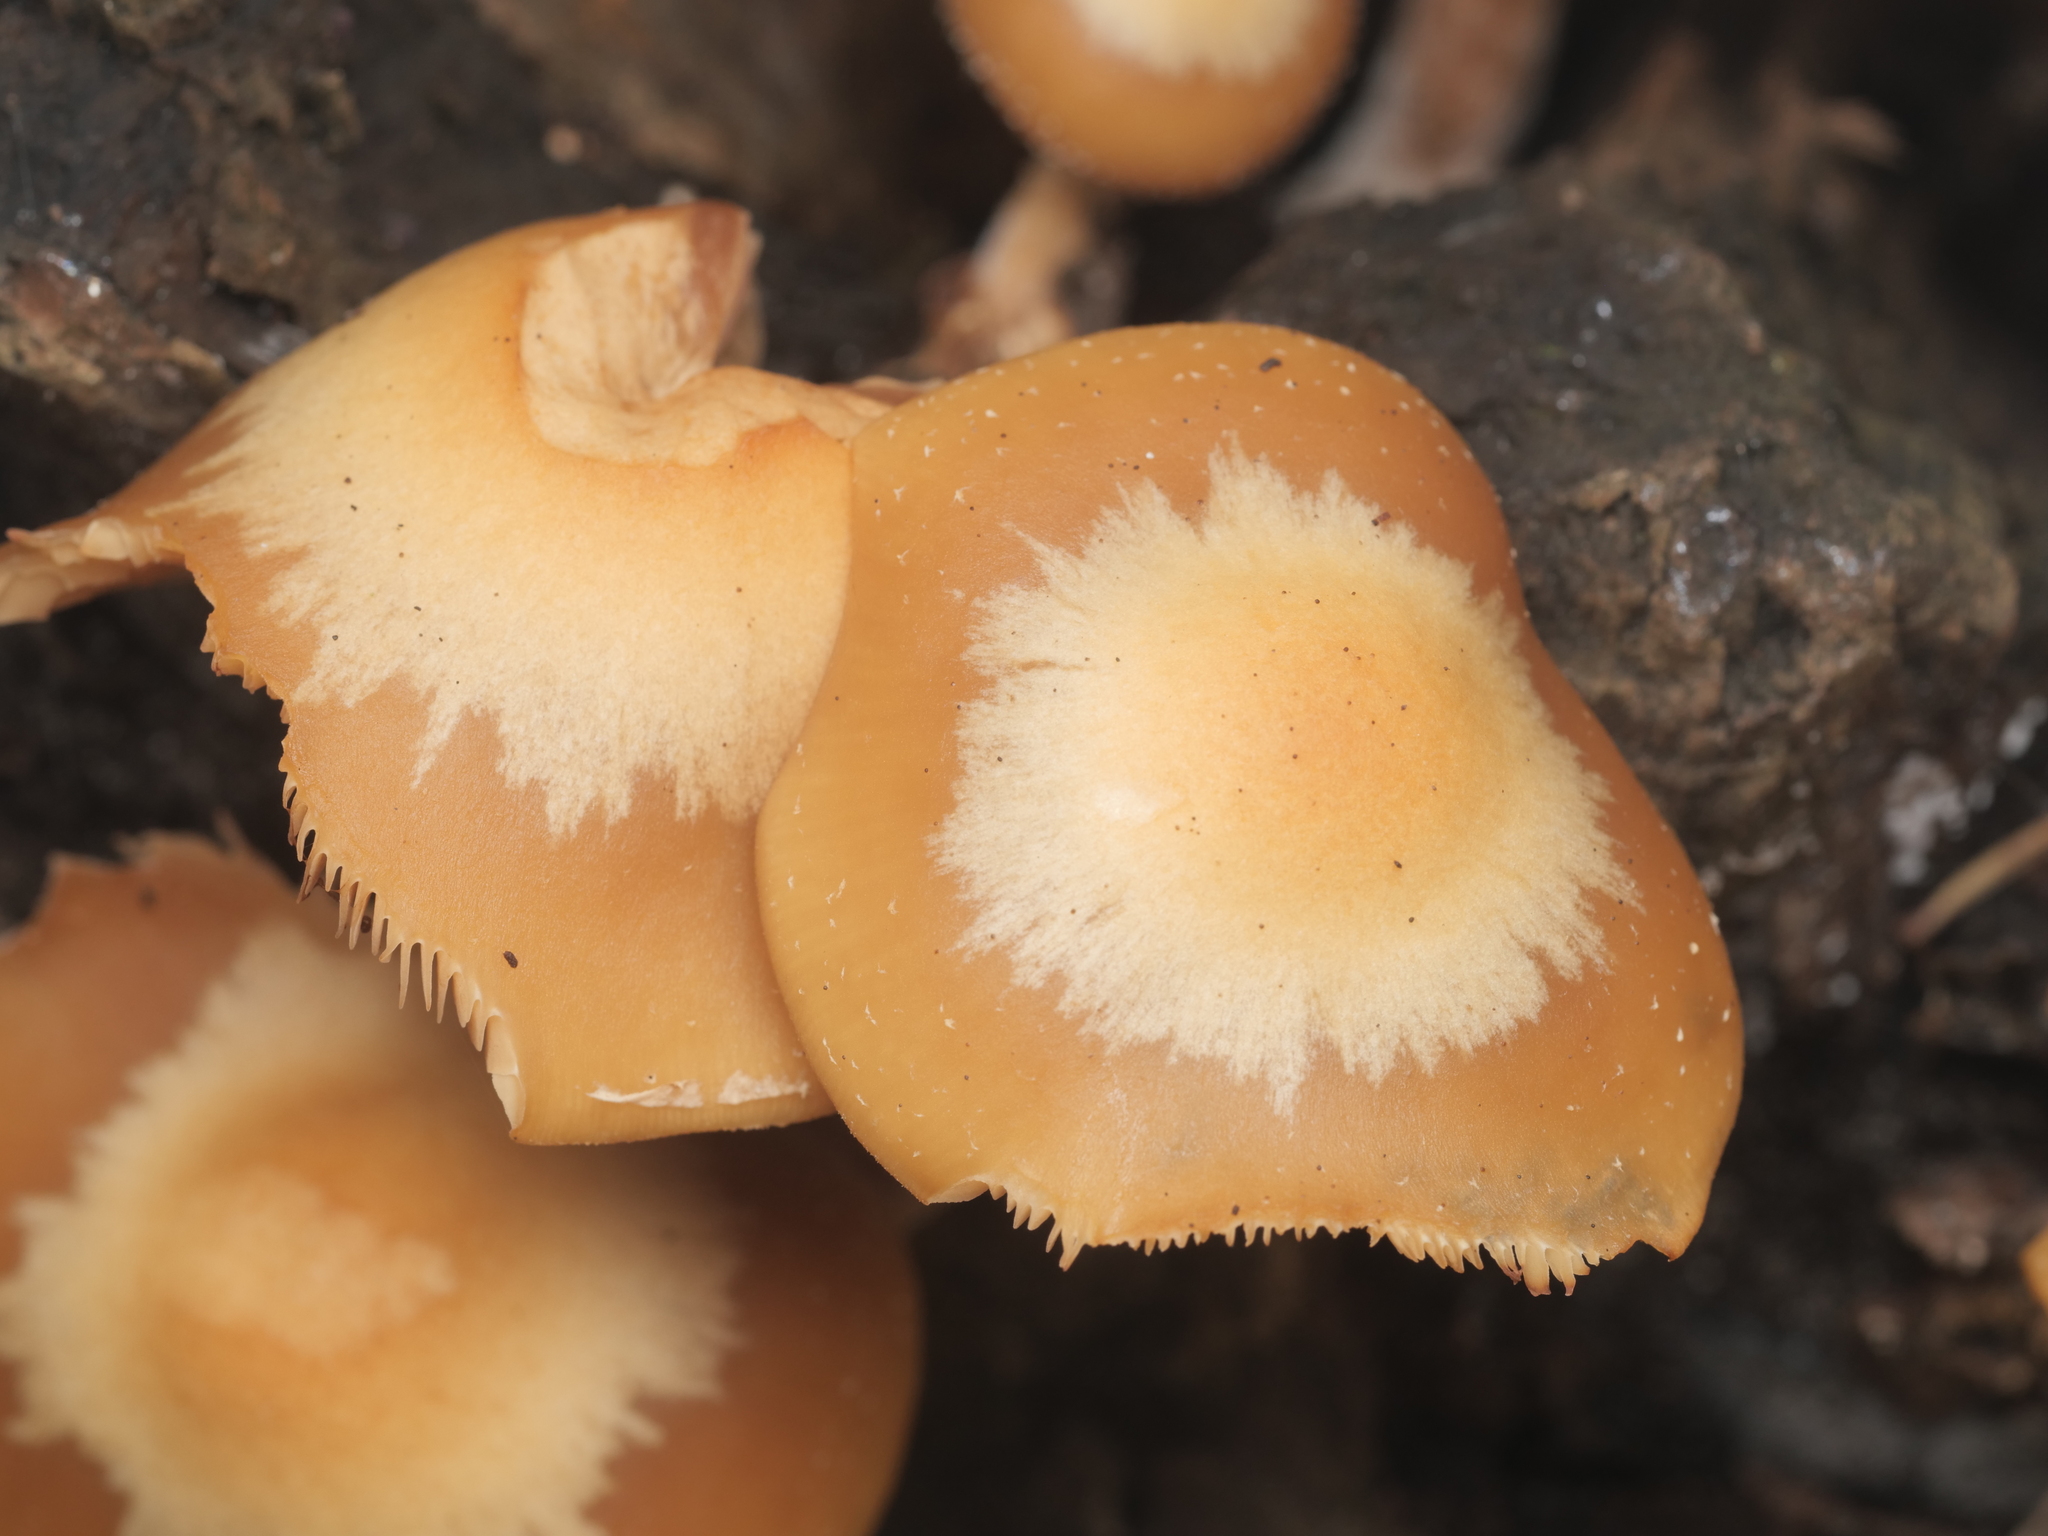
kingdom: Fungi
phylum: Basidiomycota
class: Agaricomycetes
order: Agaricales
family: Strophariaceae
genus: Kuehneromyces
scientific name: Kuehneromyces mutabilis
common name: Sheathed woodtuft
